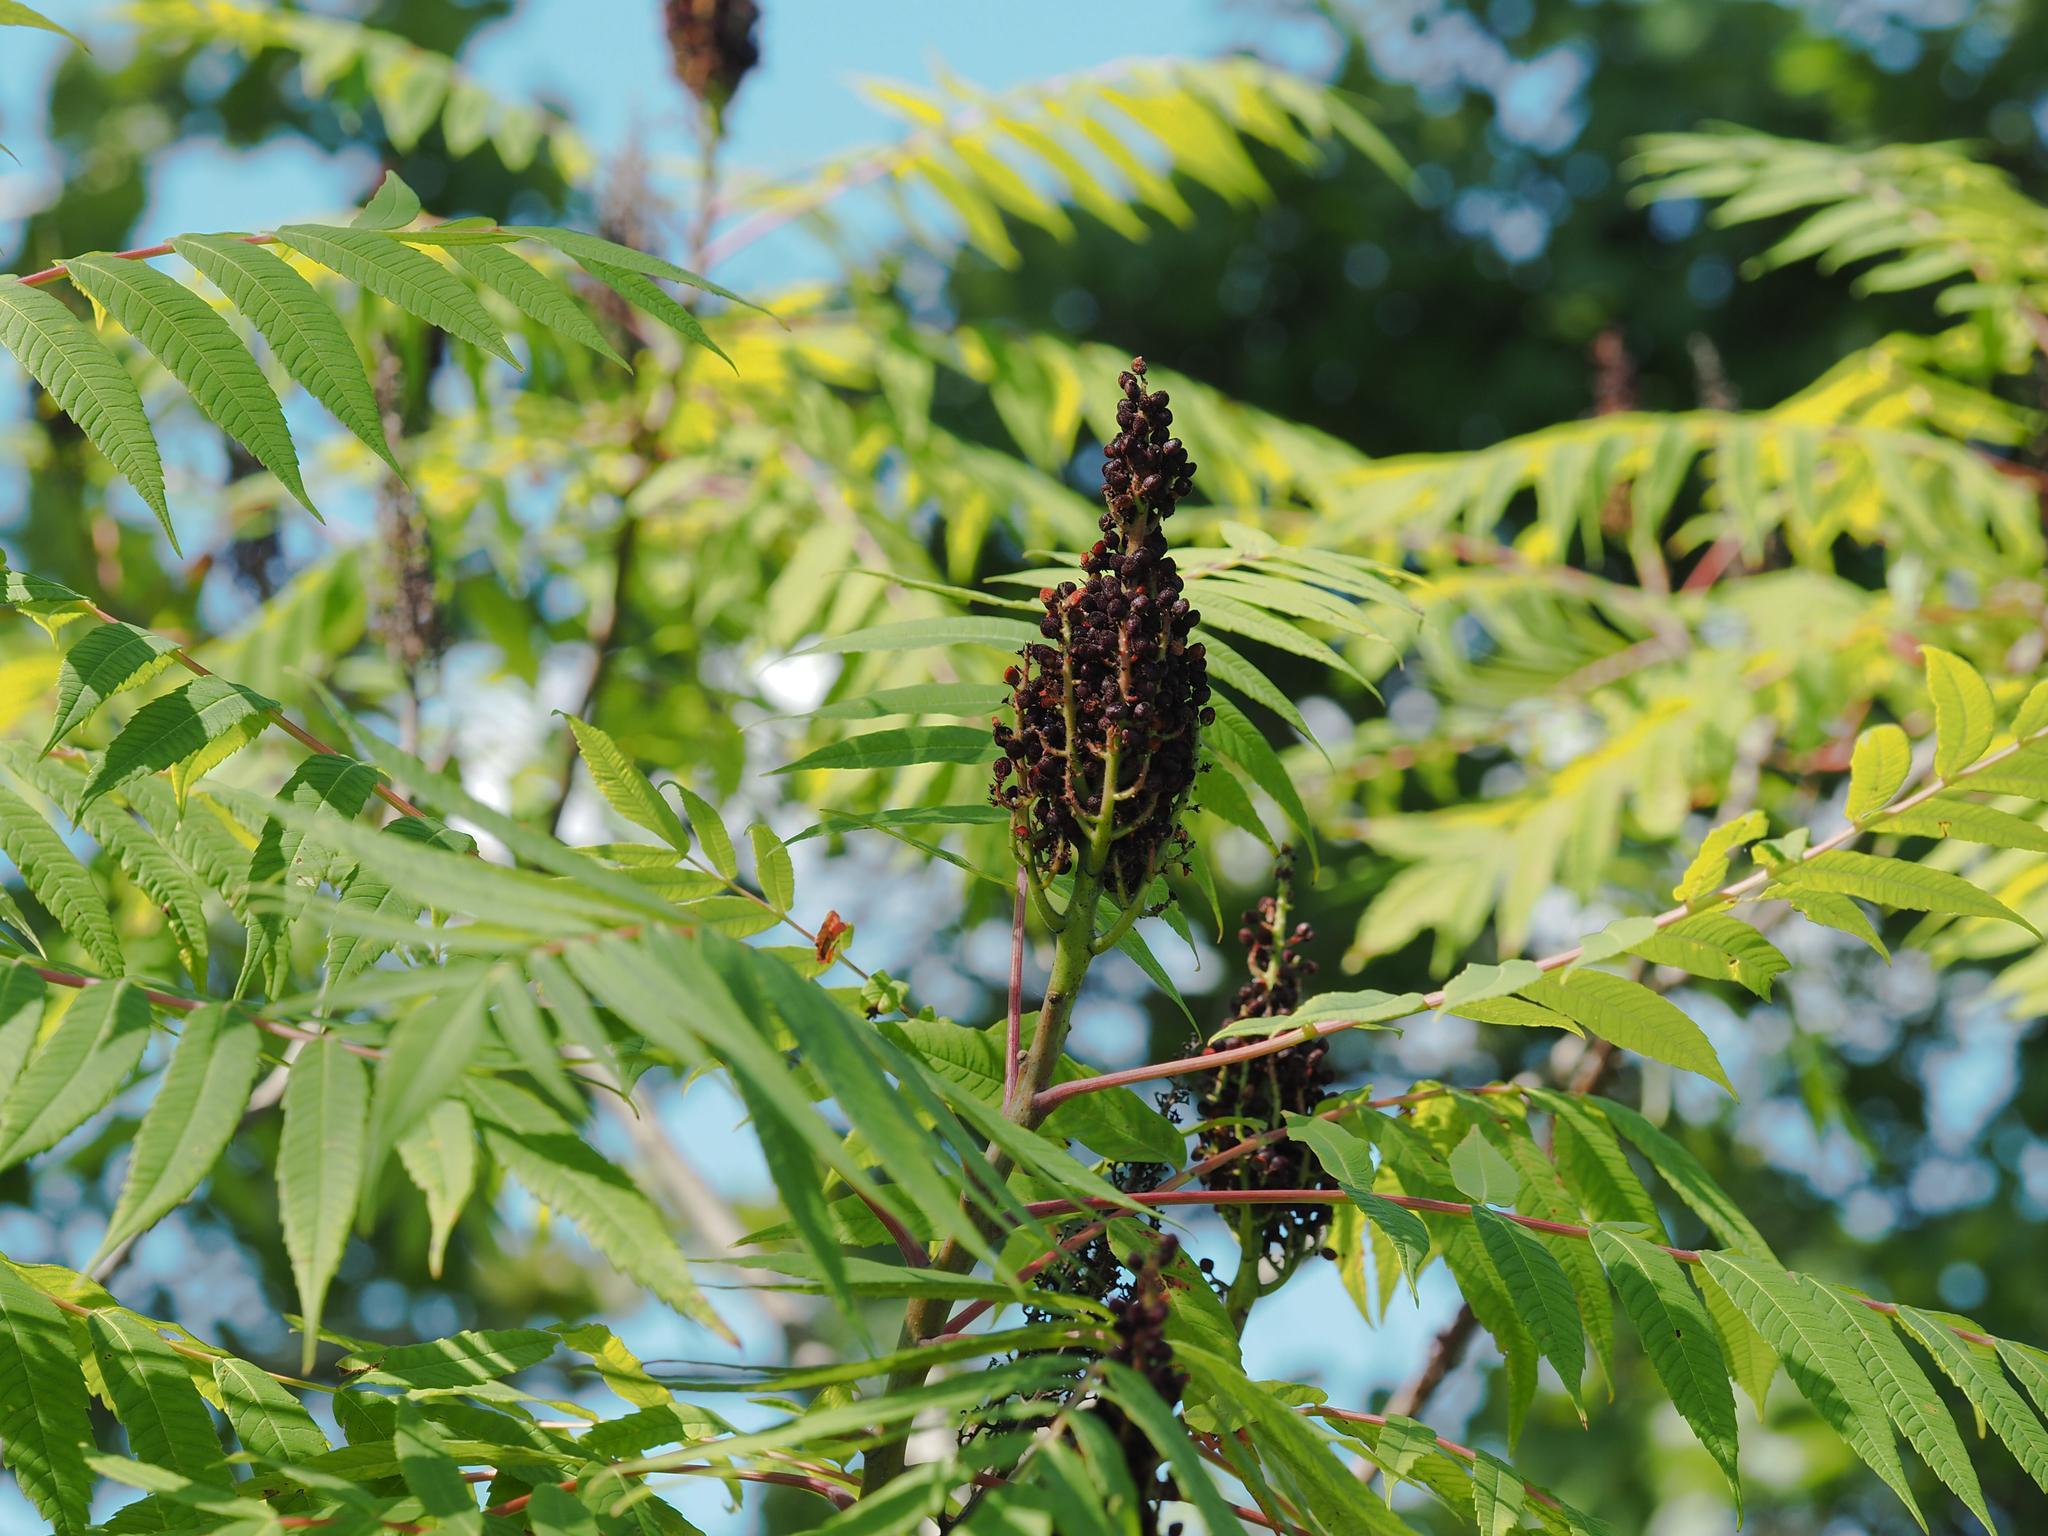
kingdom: Plantae
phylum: Tracheophyta
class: Magnoliopsida
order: Sapindales
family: Anacardiaceae
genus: Rhus
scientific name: Rhus glabra
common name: Scarlet sumac
